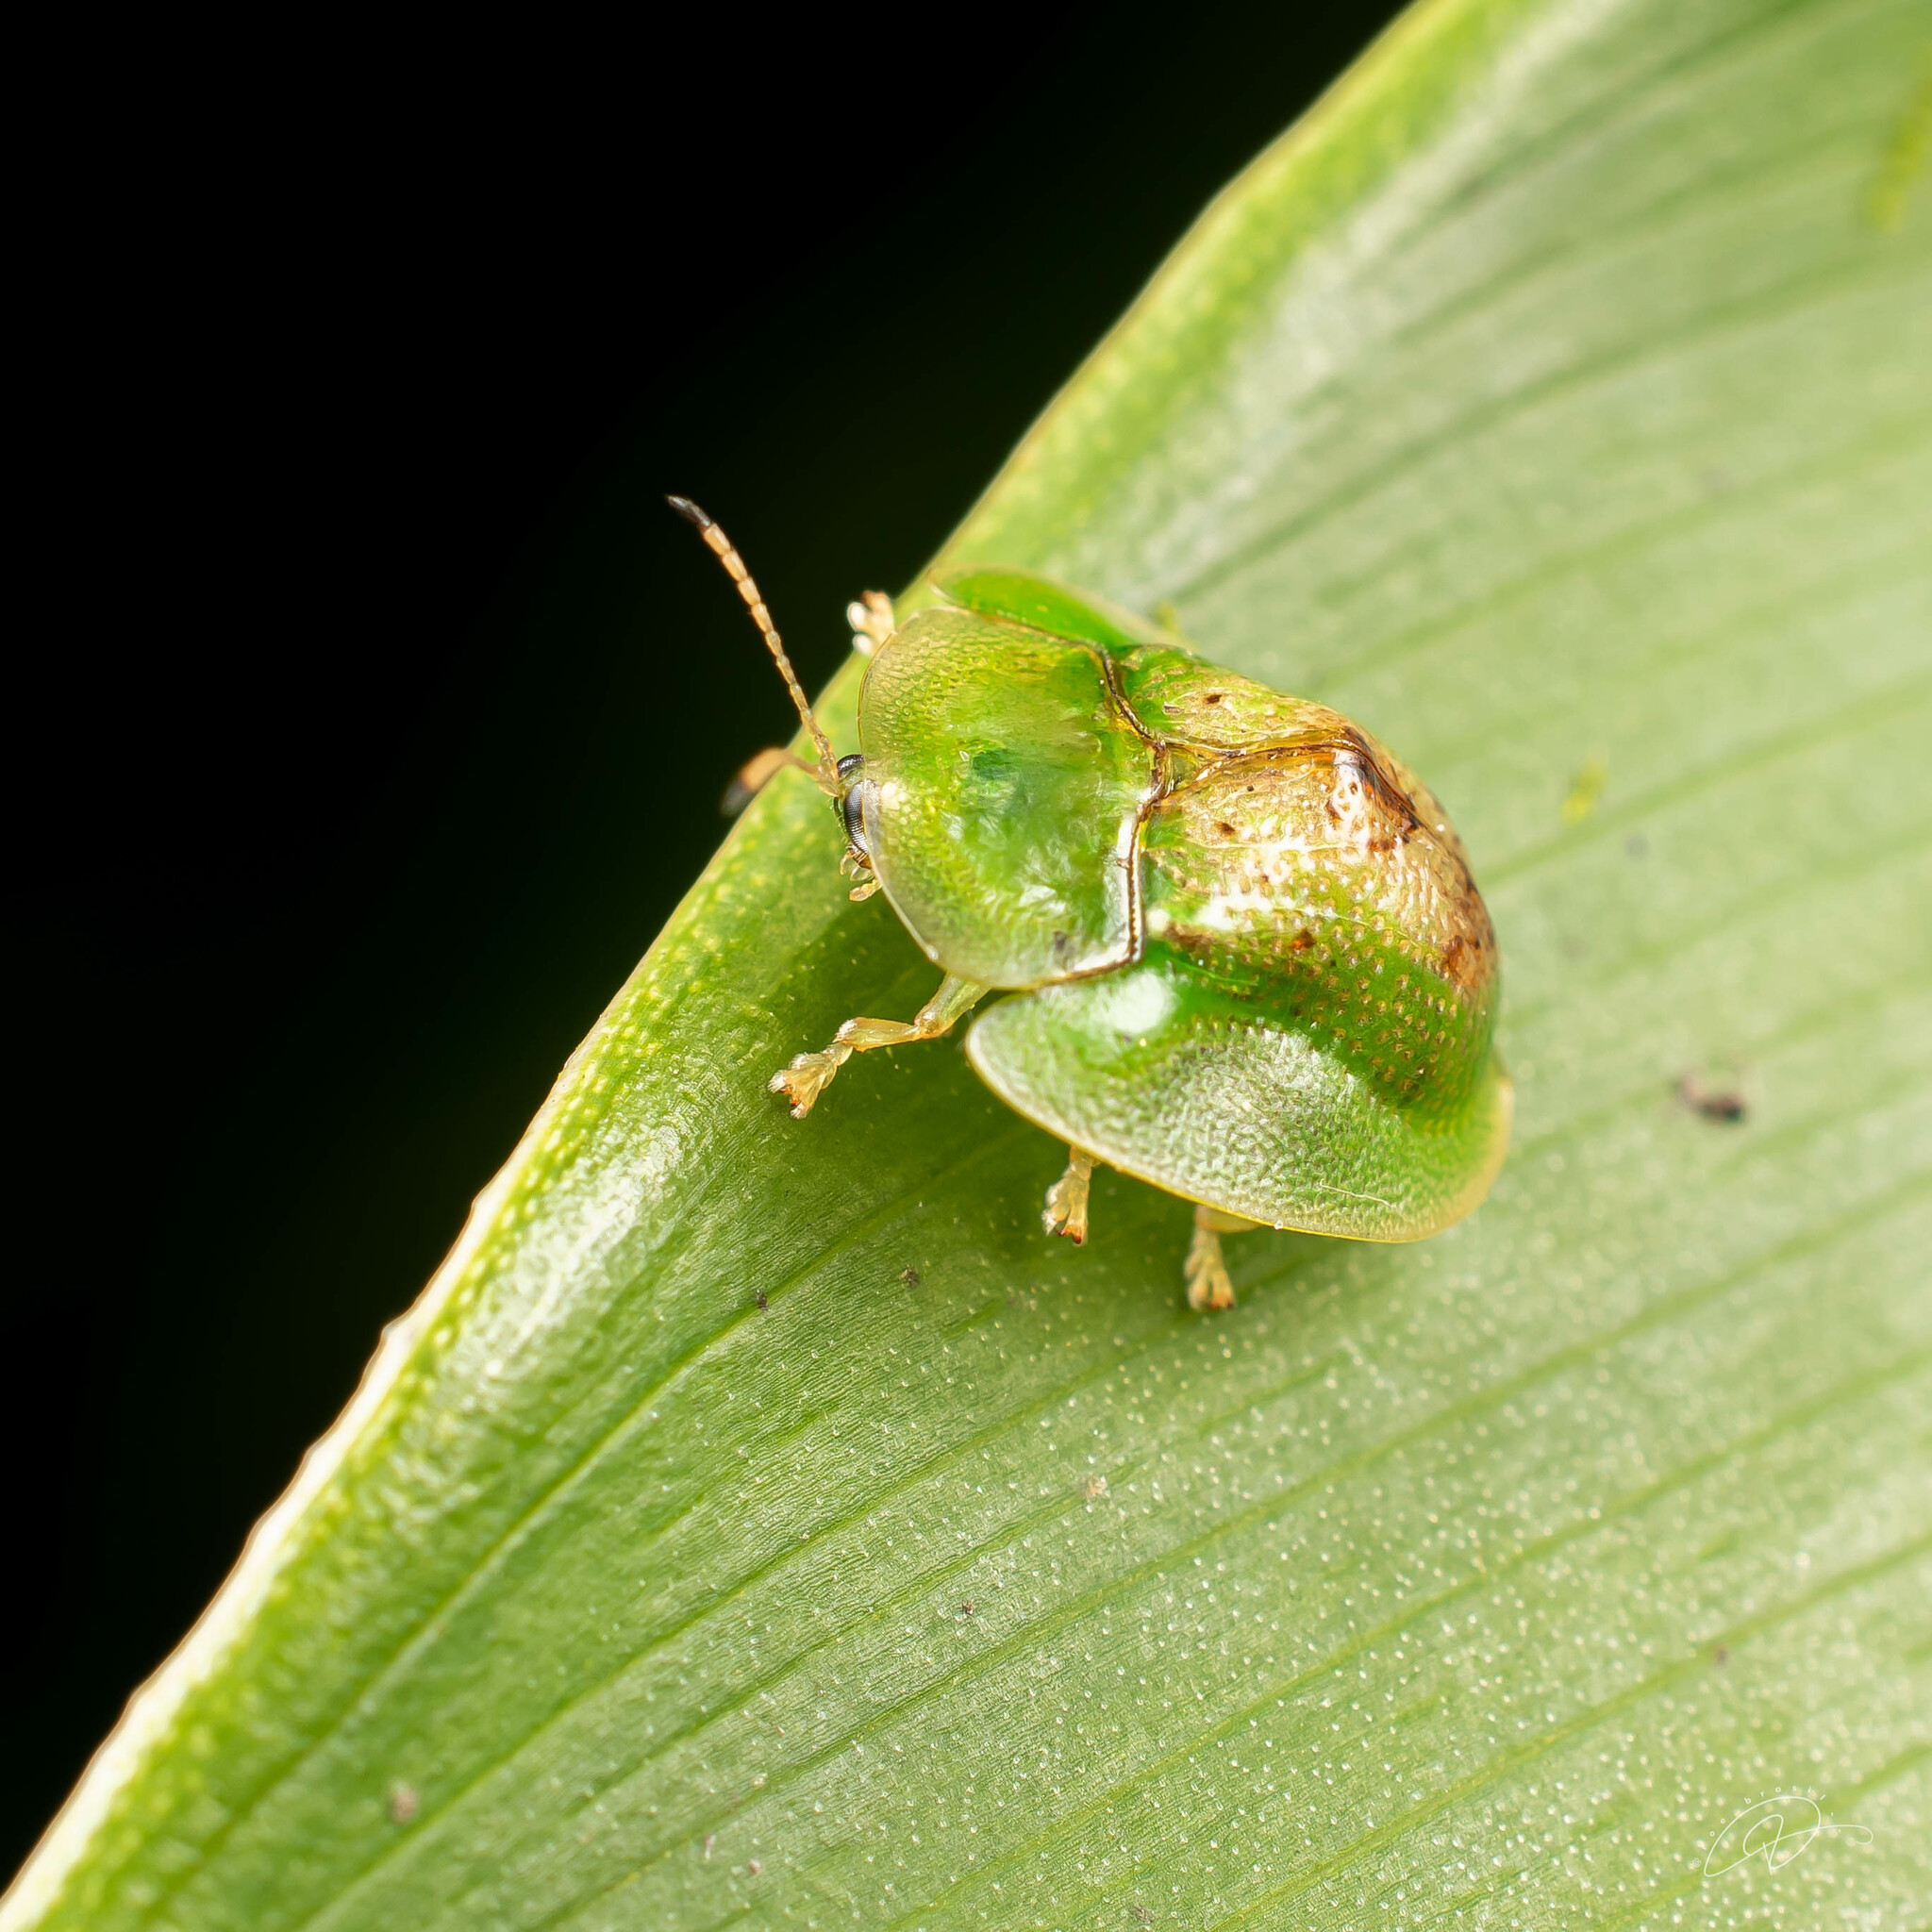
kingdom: Animalia
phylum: Arthropoda
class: Insecta
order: Coleoptera
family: Chrysomelidae
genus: Plagiometriona
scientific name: Plagiometriona vigens
